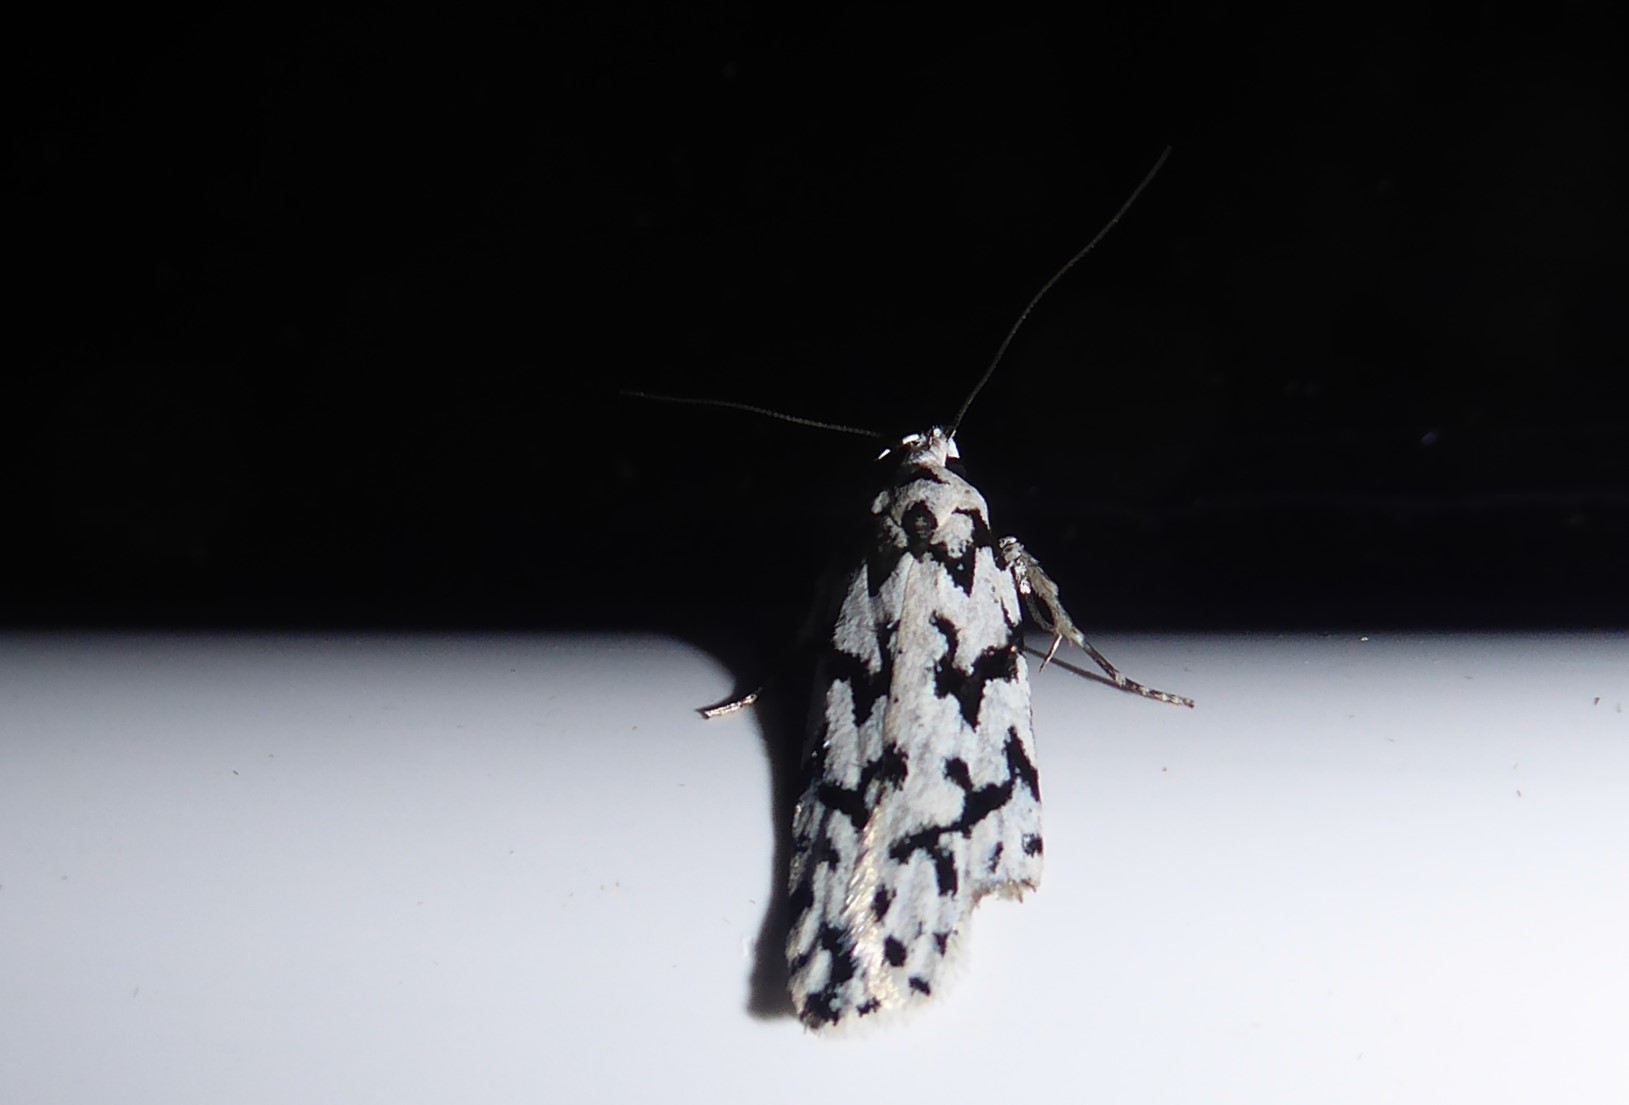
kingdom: Animalia
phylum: Arthropoda
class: Insecta
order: Lepidoptera
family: Oecophoridae
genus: Izatha
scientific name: Izatha katadiktya
